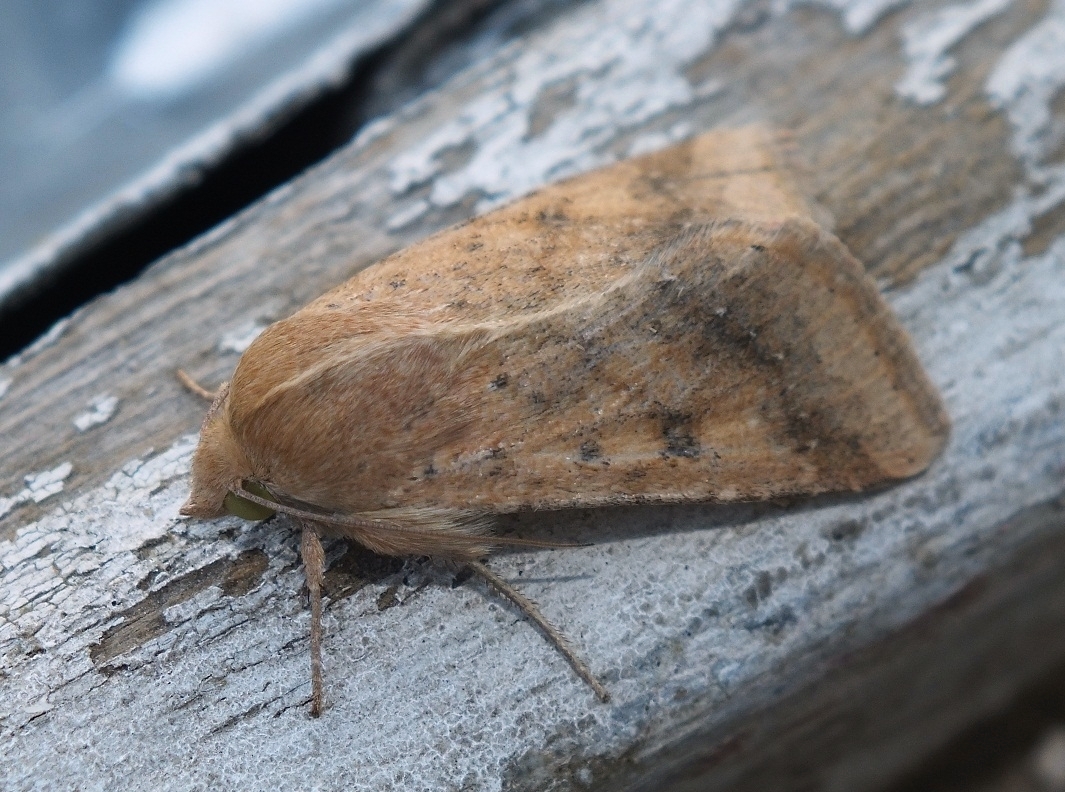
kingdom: Animalia
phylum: Arthropoda
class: Insecta
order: Lepidoptera
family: Noctuidae
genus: Helicoverpa
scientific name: Helicoverpa armigera
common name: Cotton bollworm
